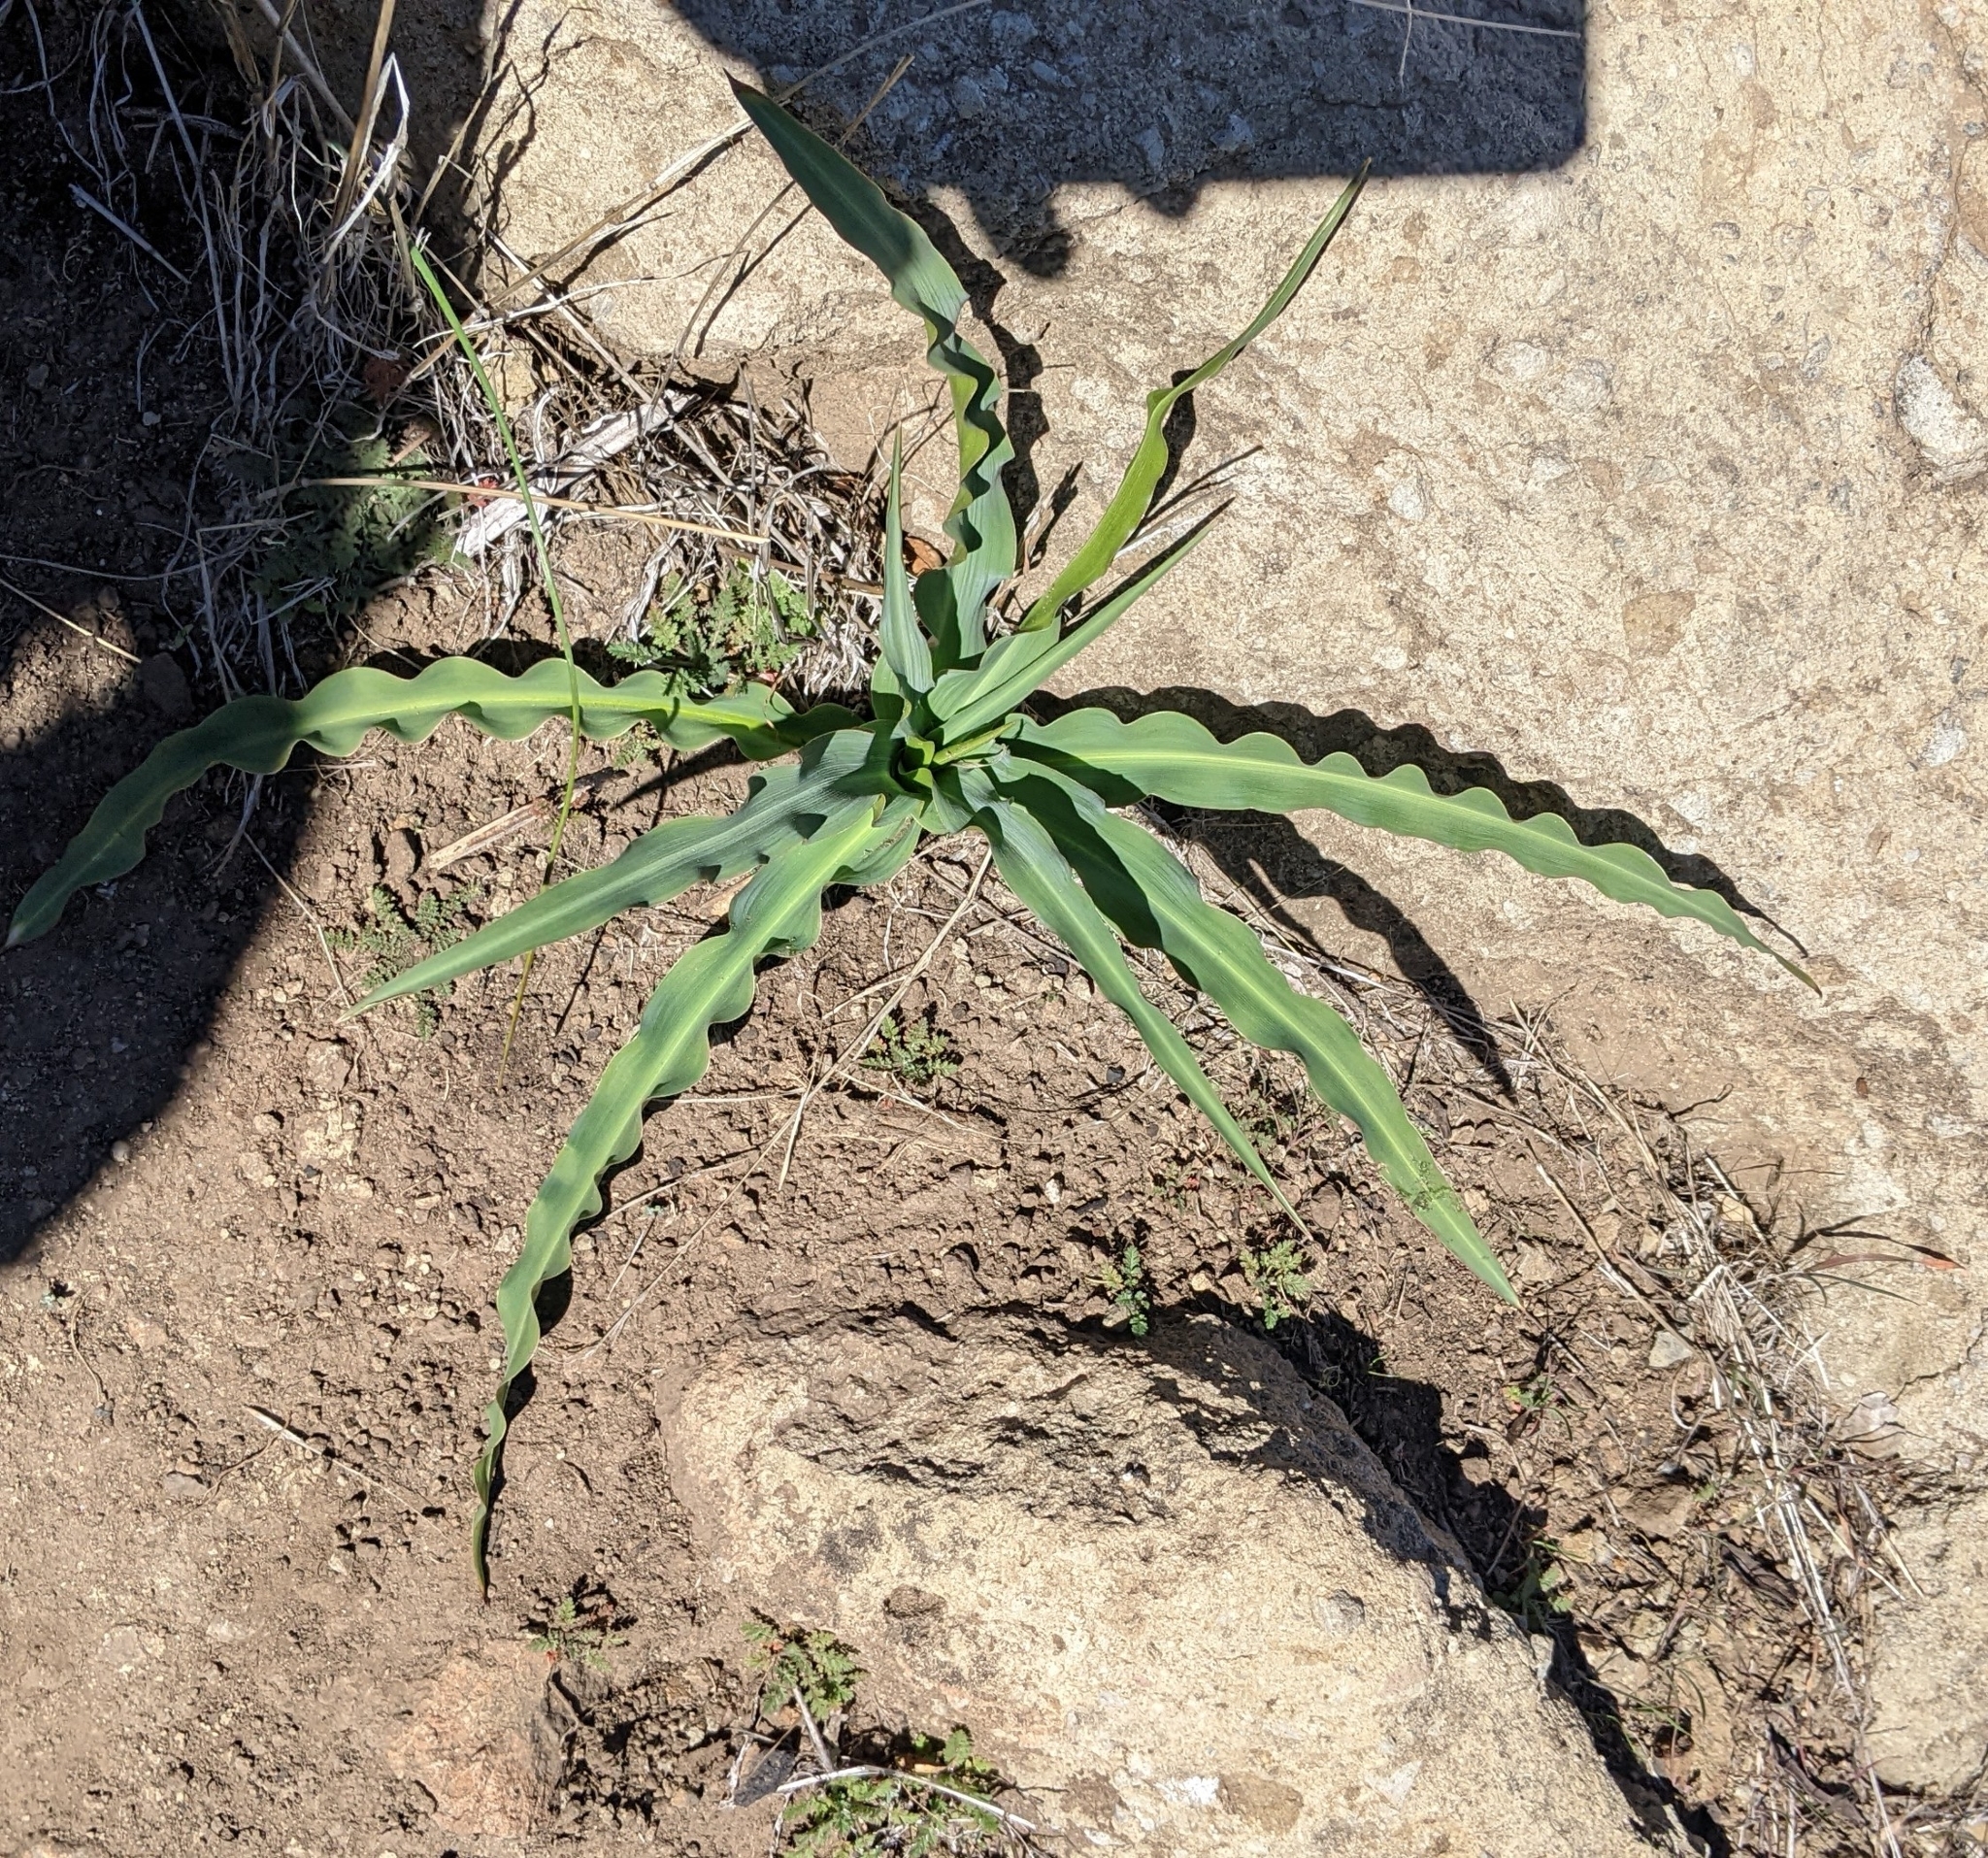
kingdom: Plantae
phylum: Tracheophyta
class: Liliopsida
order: Asparagales
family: Asparagaceae
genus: Chlorogalum
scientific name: Chlorogalum pomeridianum
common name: Amole
